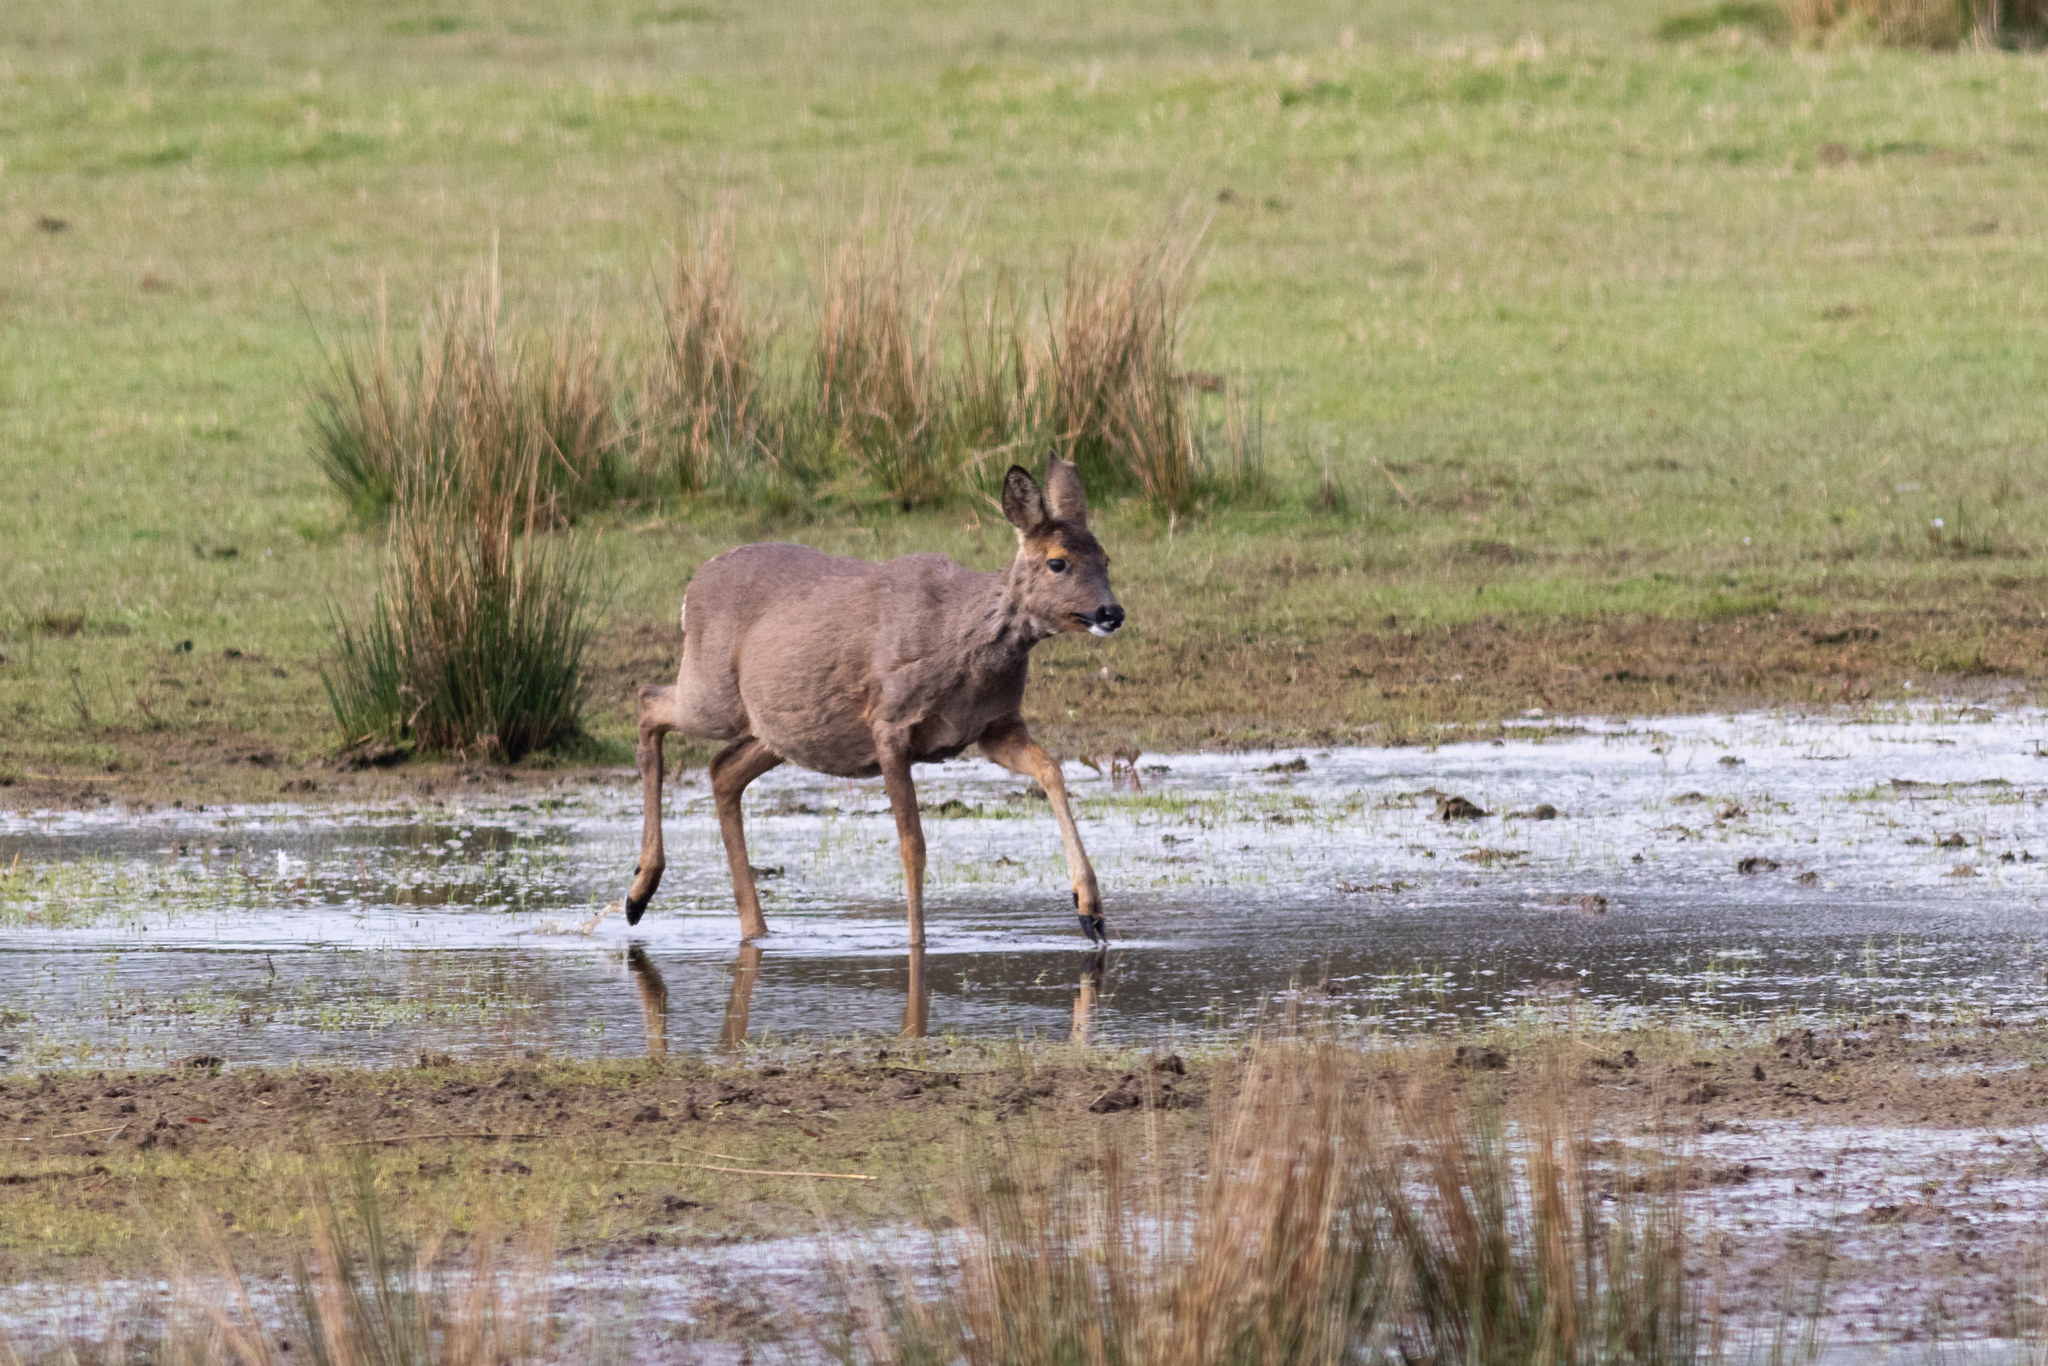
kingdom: Animalia
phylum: Chordata
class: Mammalia
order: Artiodactyla
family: Cervidae
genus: Capreolus
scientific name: Capreolus capreolus
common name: Western roe deer
